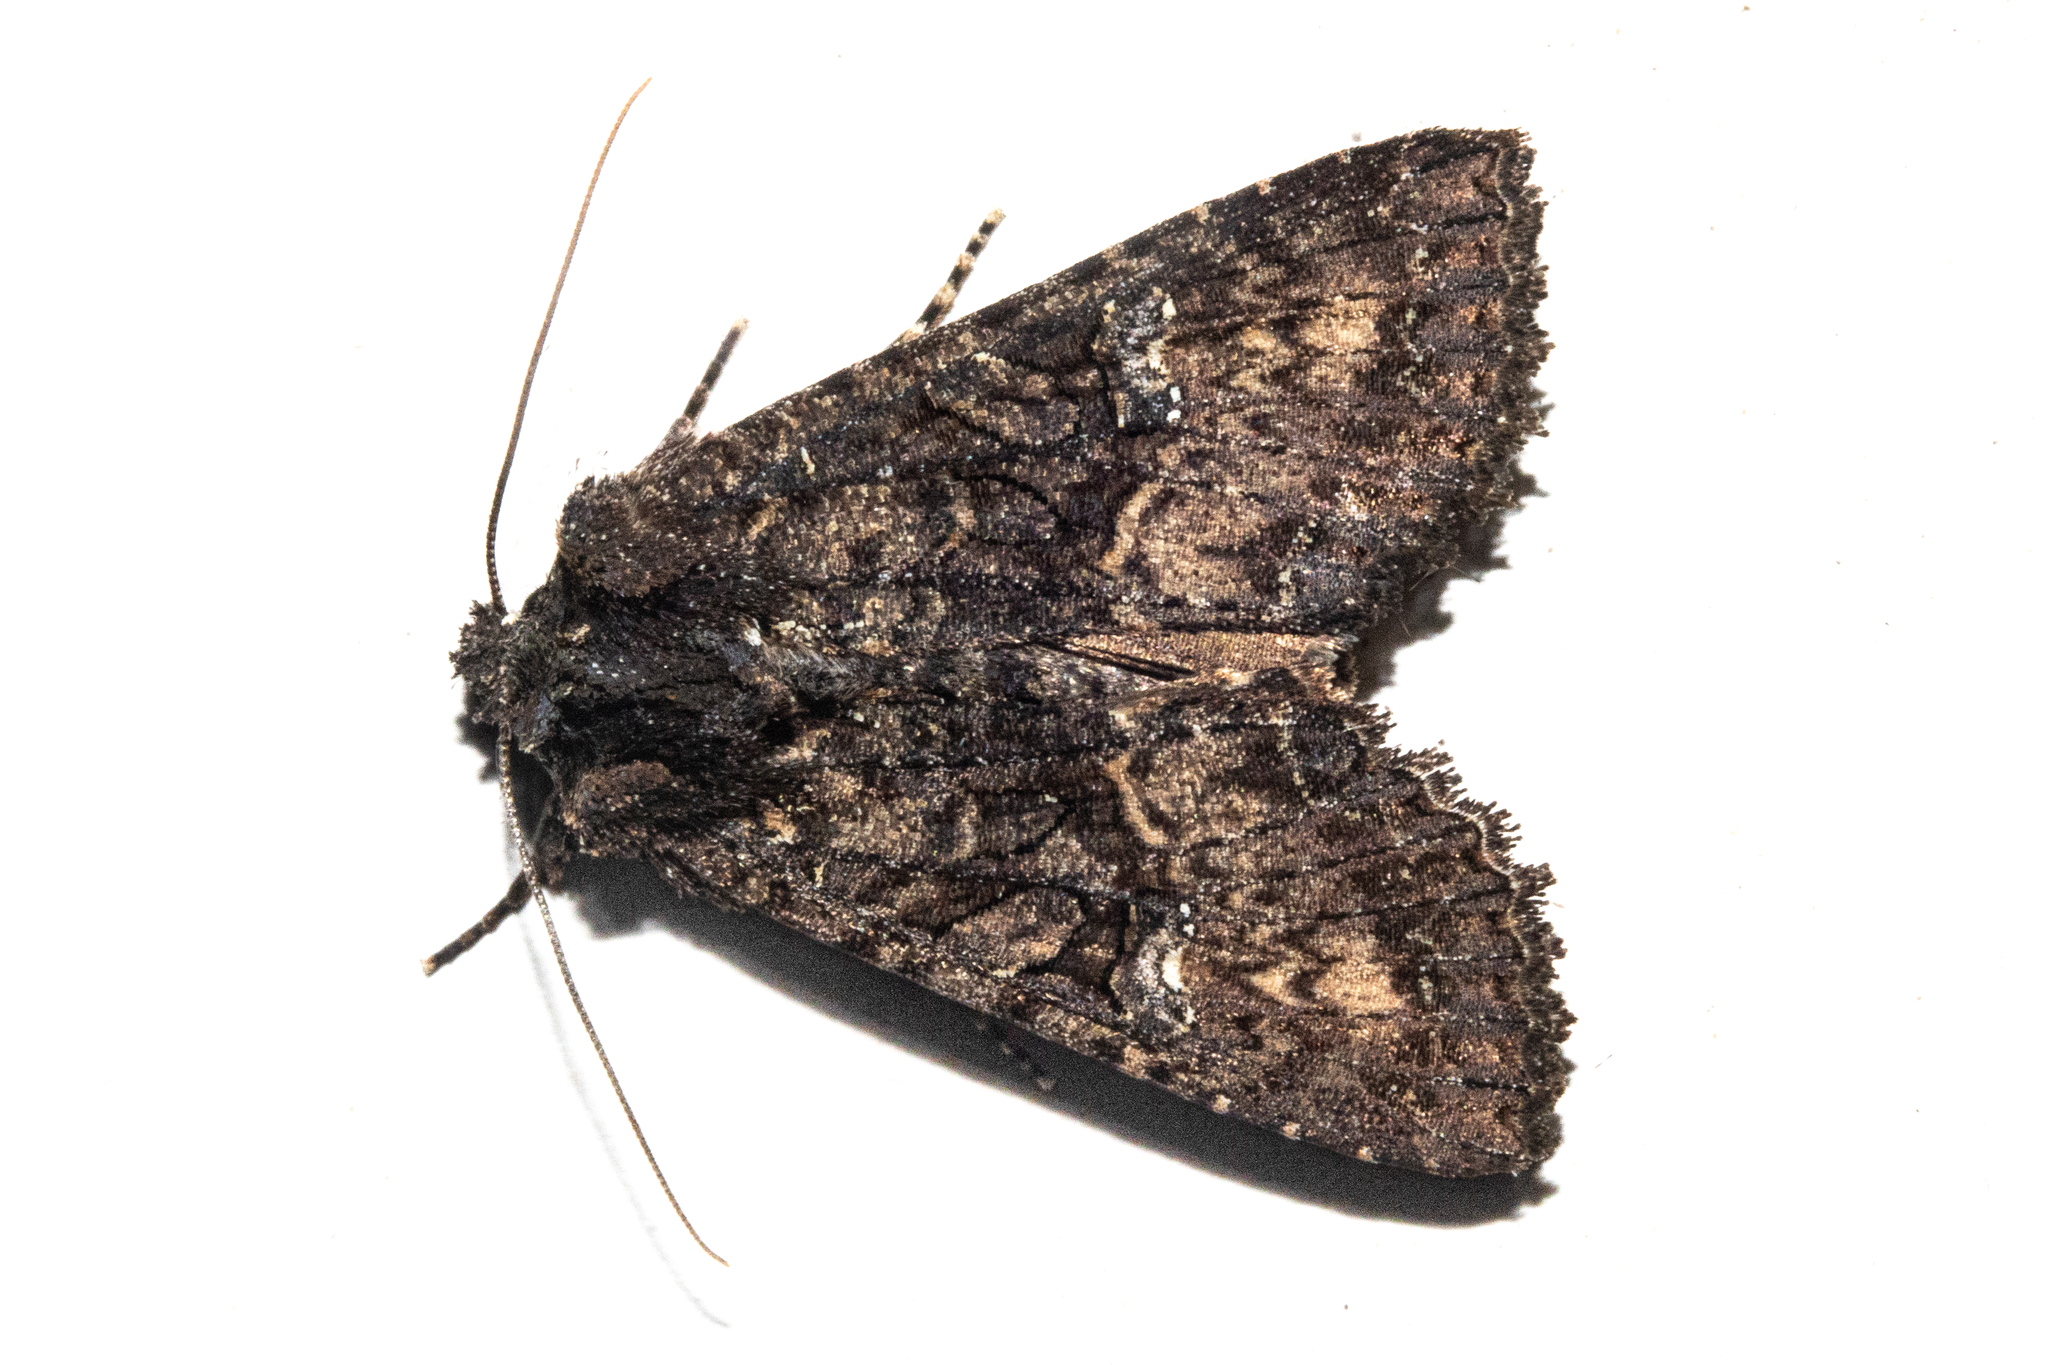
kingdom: Animalia
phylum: Arthropoda
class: Insecta
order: Lepidoptera
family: Noctuidae
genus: Meterana
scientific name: Meterana ochthistis
